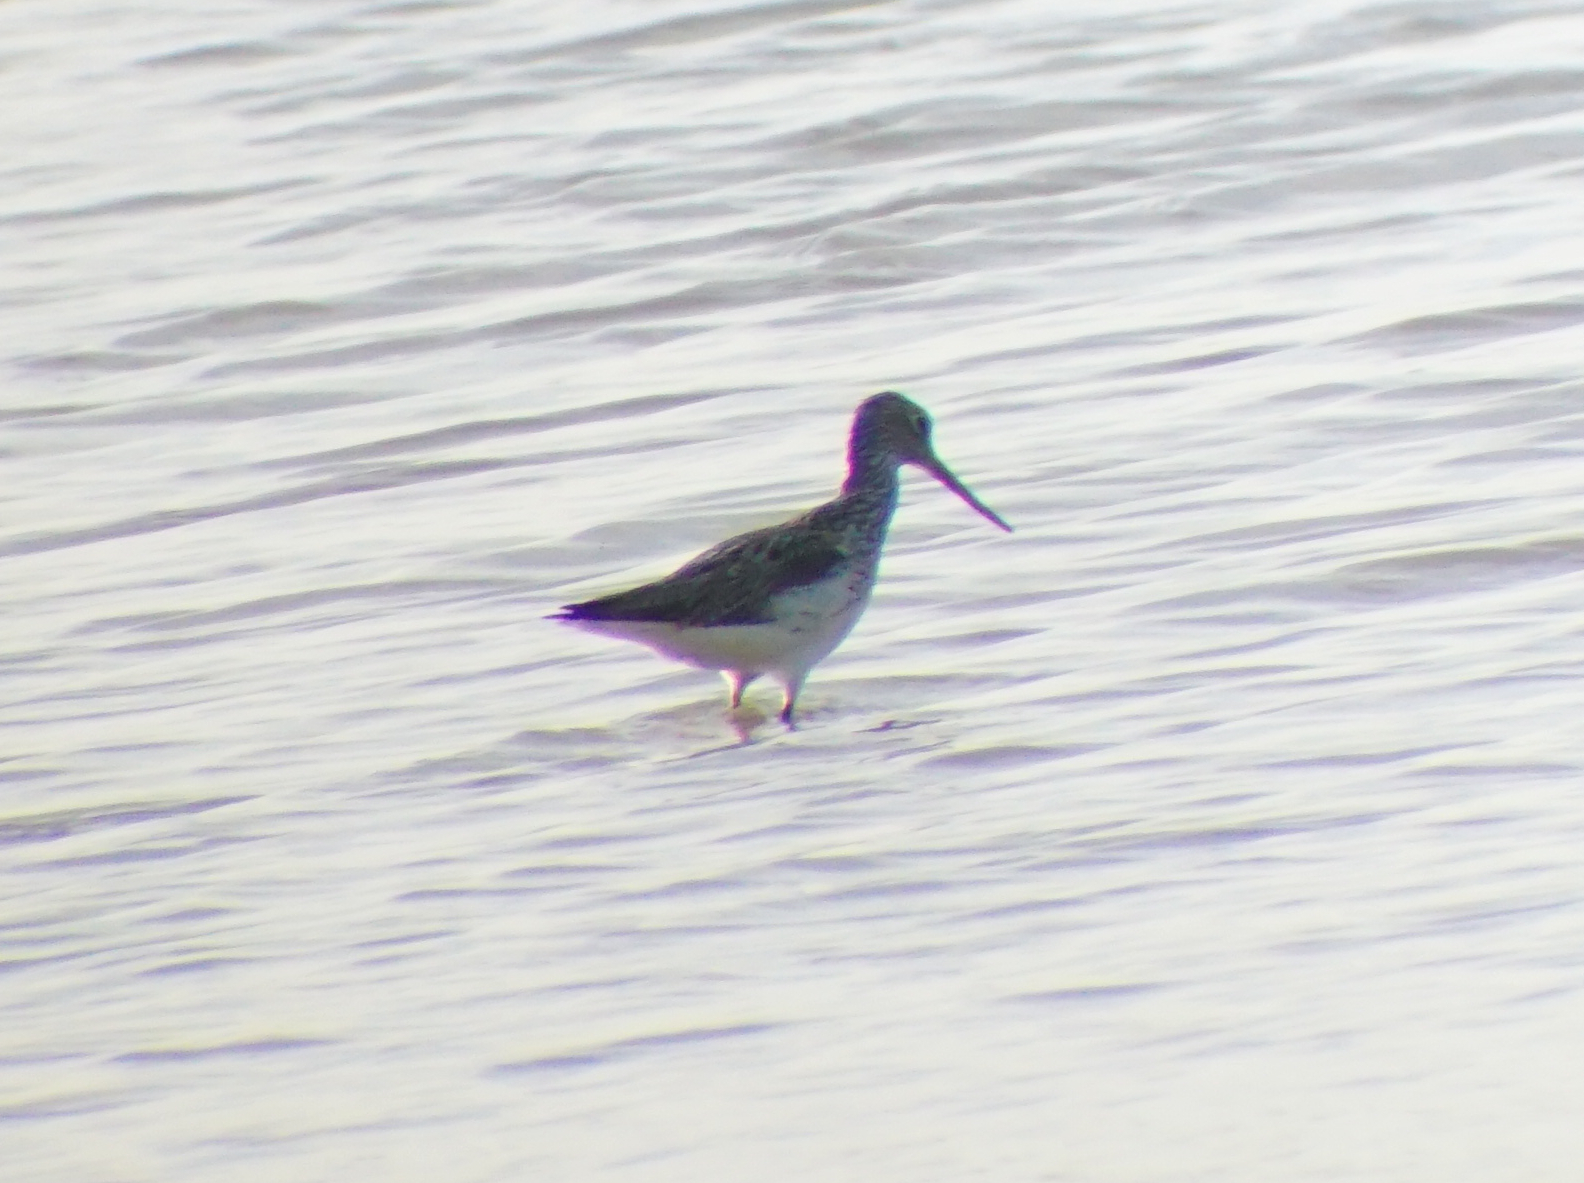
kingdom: Animalia
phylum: Chordata
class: Aves
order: Charadriiformes
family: Scolopacidae
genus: Tringa
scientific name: Tringa nebularia
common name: Common greenshank
